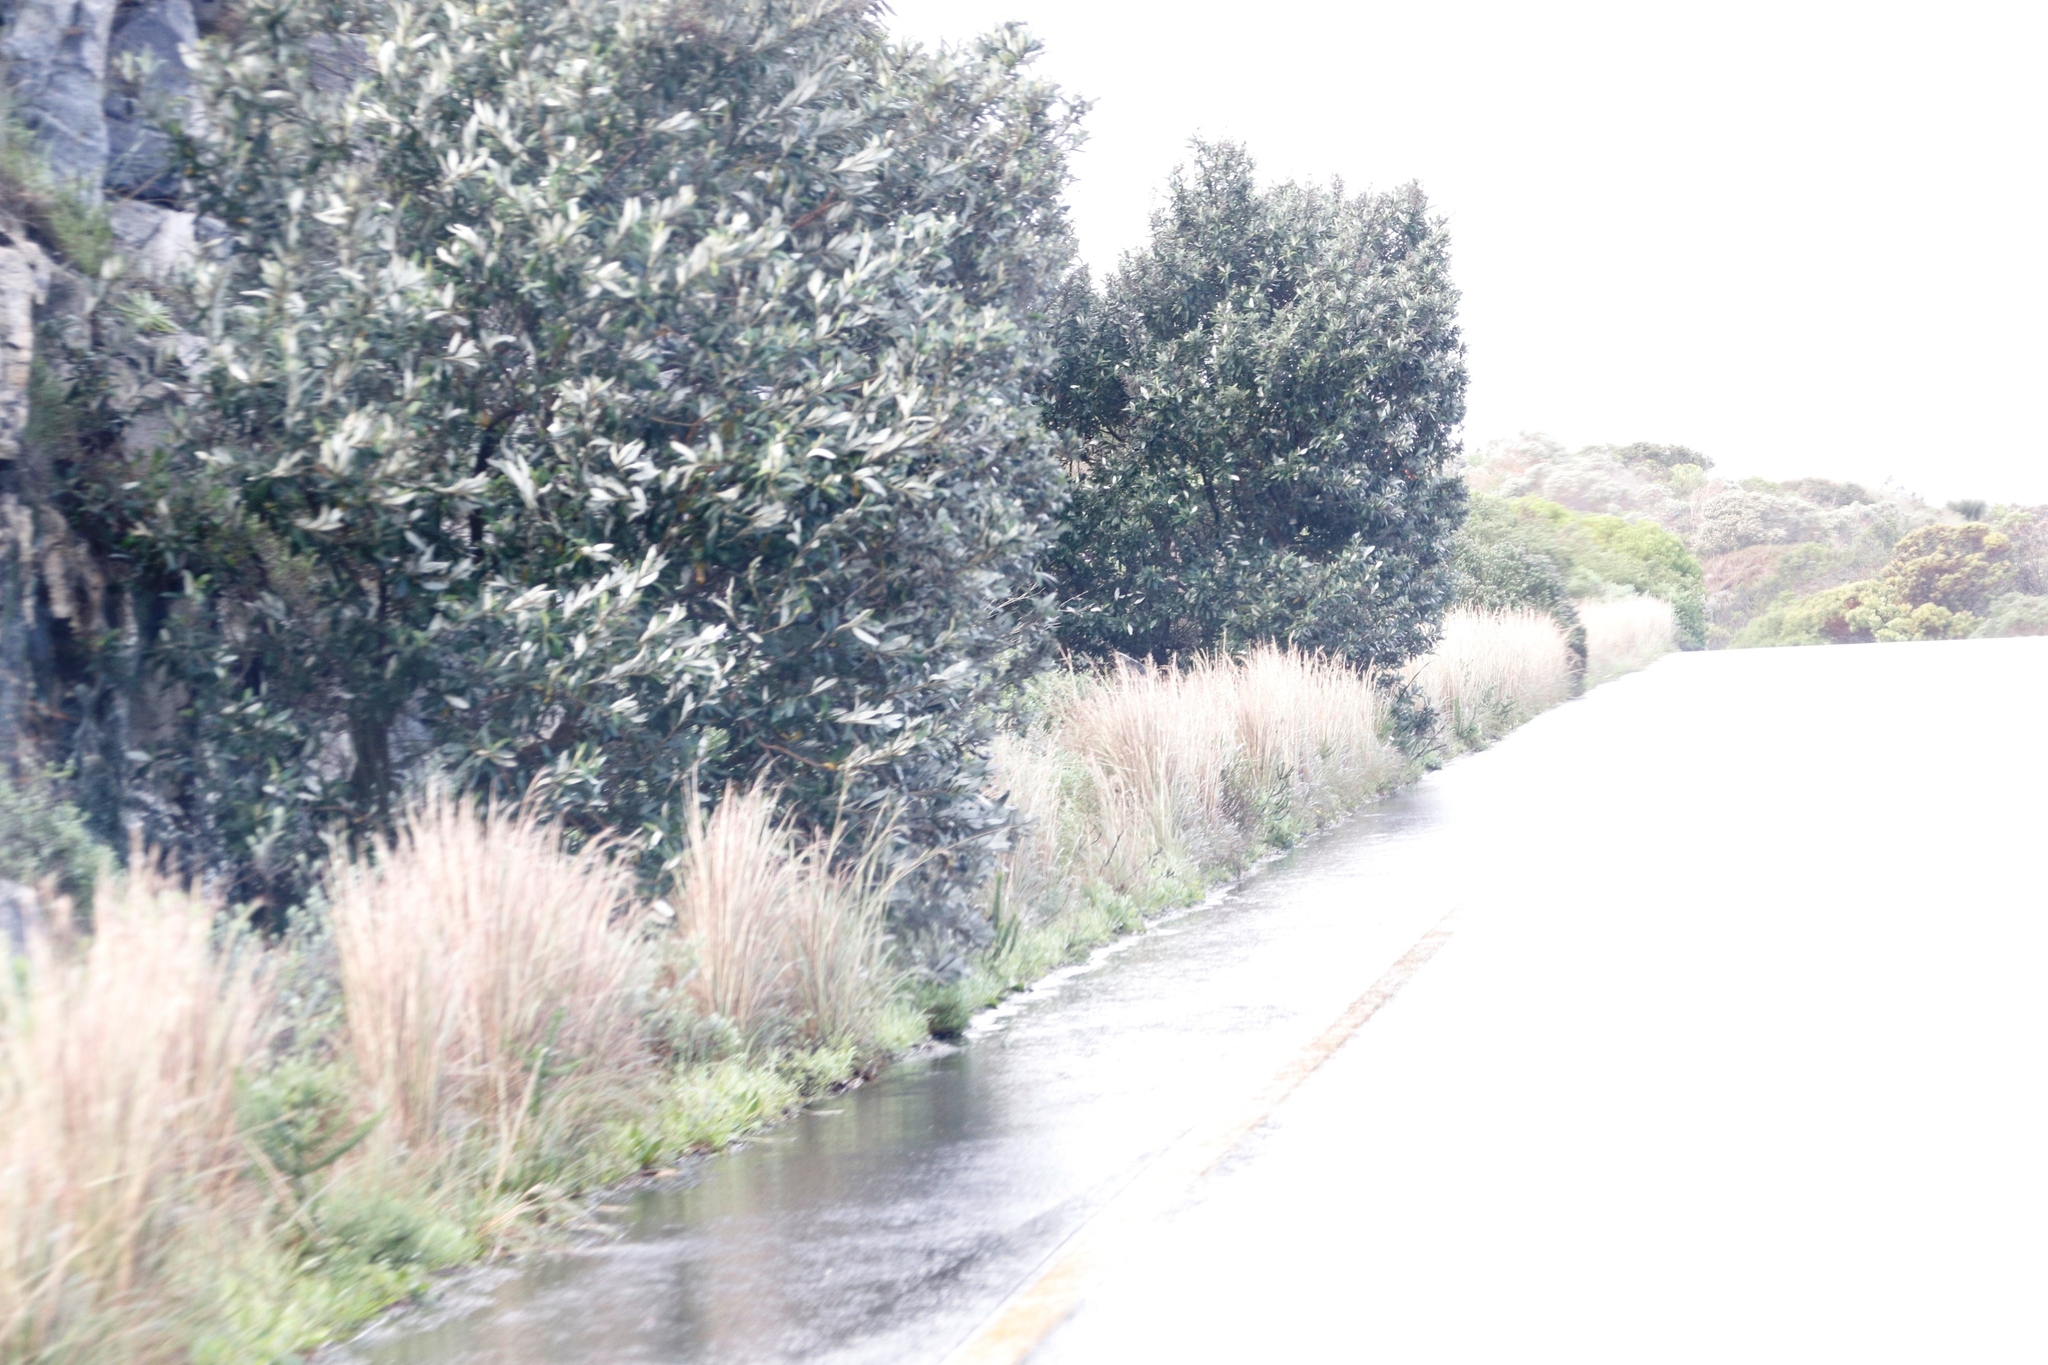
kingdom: Plantae
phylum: Tracheophyta
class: Liliopsida
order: Poales
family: Poaceae
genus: Hyparrhenia
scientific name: Hyparrhenia hirta
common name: Thatching grass
